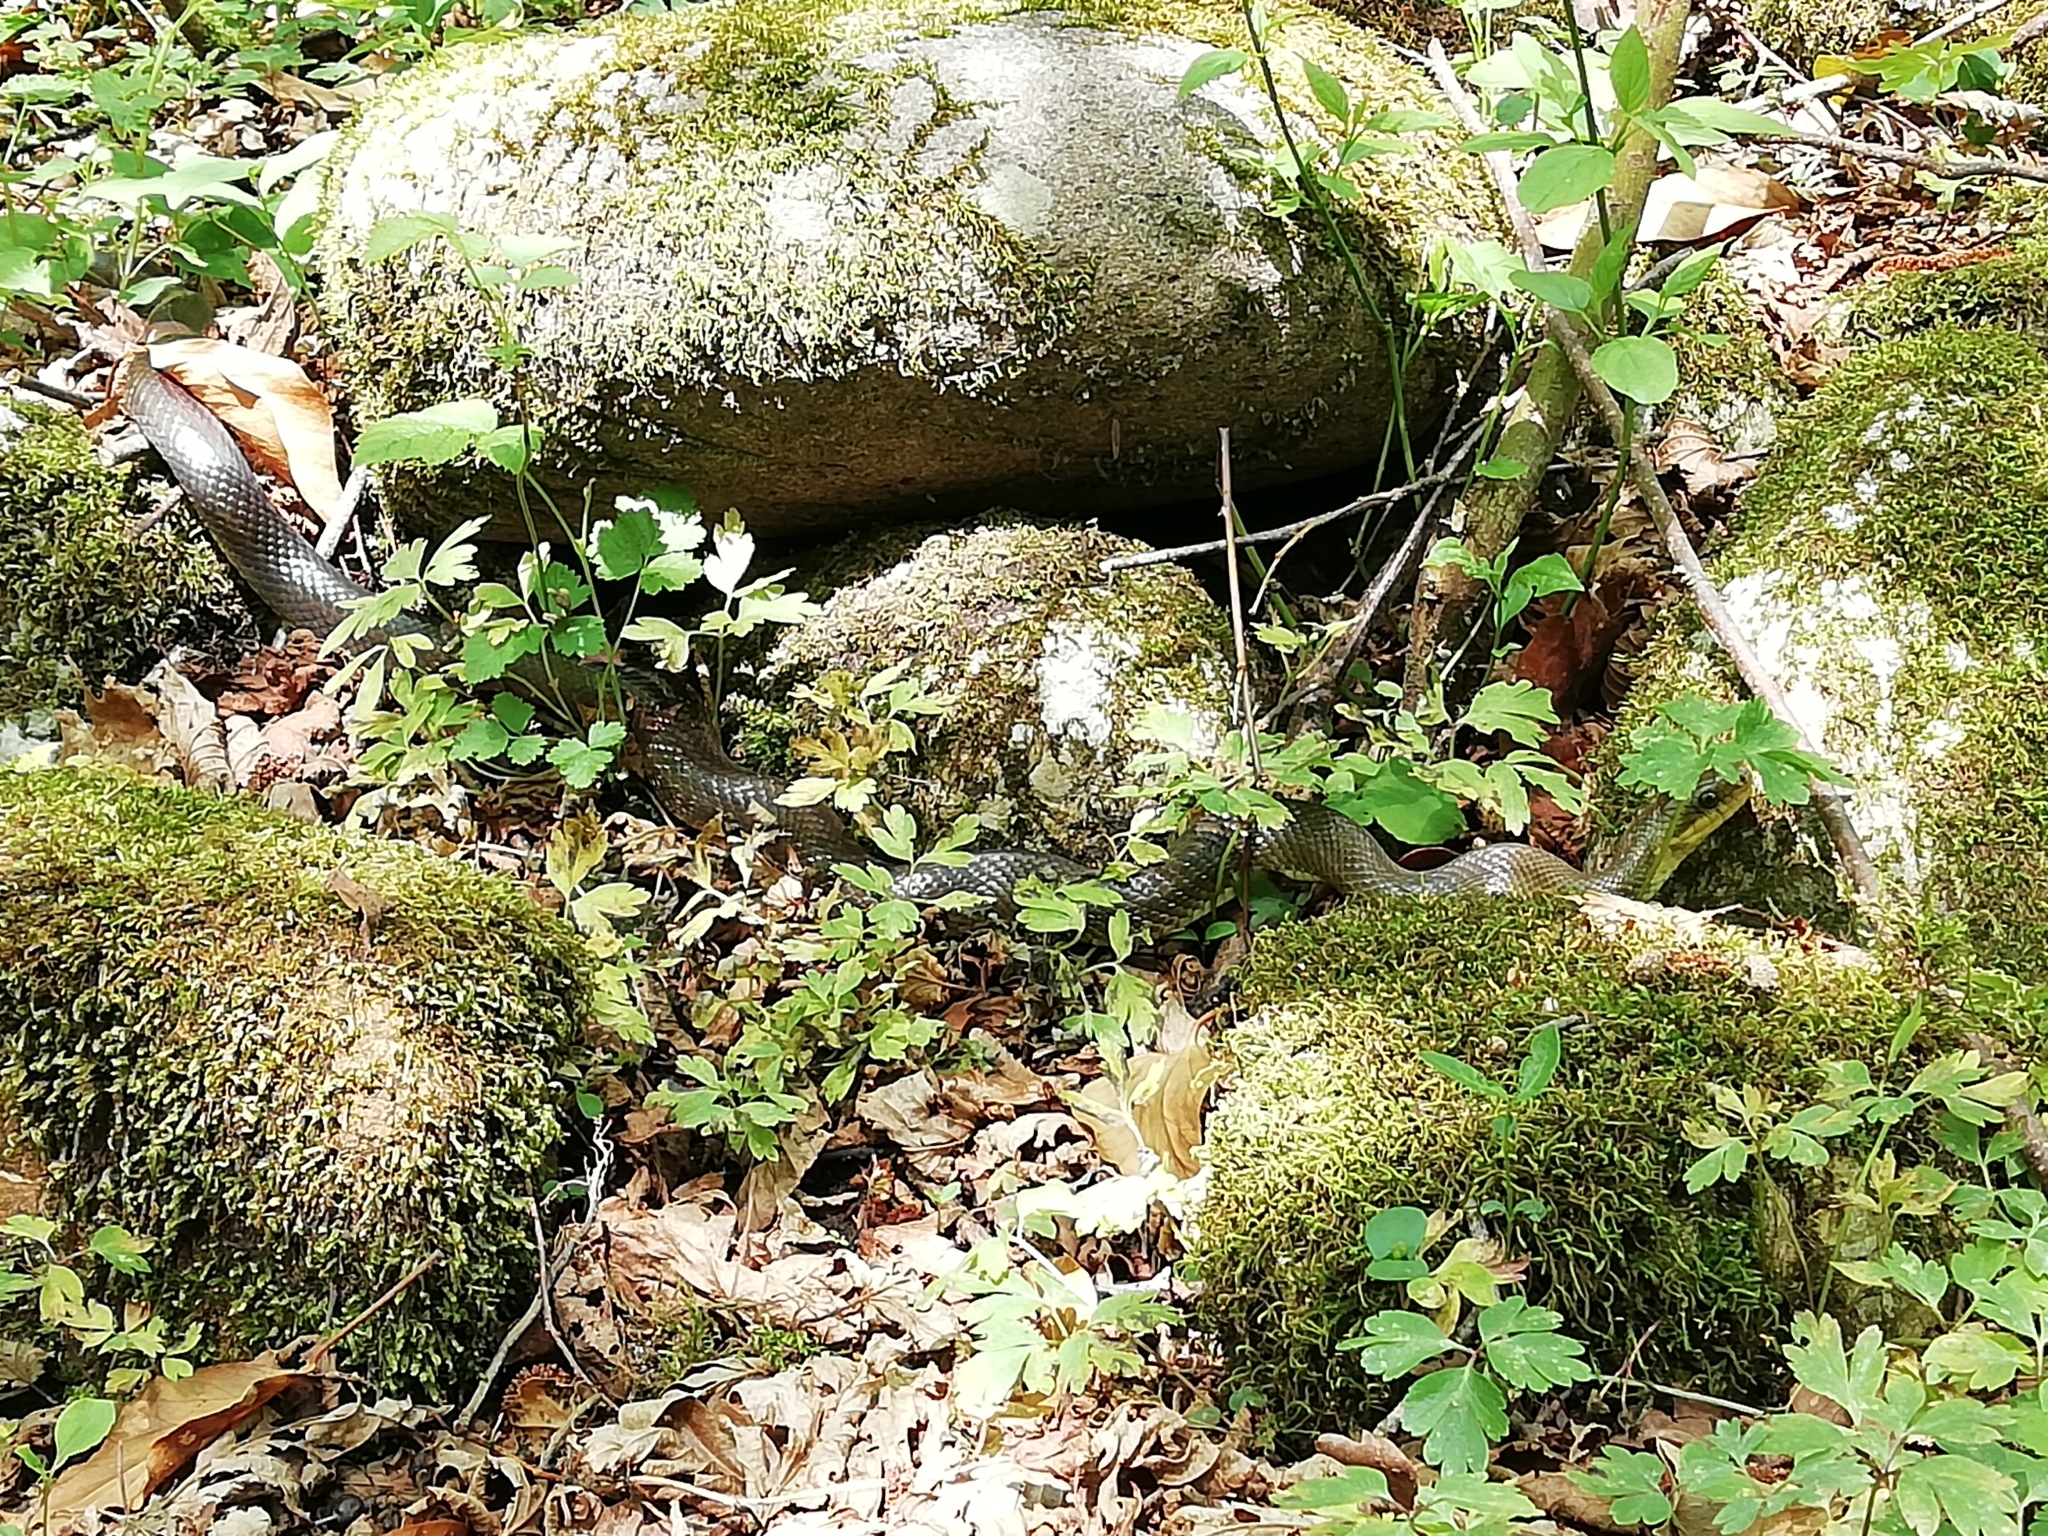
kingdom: Animalia
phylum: Chordata
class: Squamata
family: Colubridae
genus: Zamenis
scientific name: Zamenis longissimus
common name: Aesculapean snake
